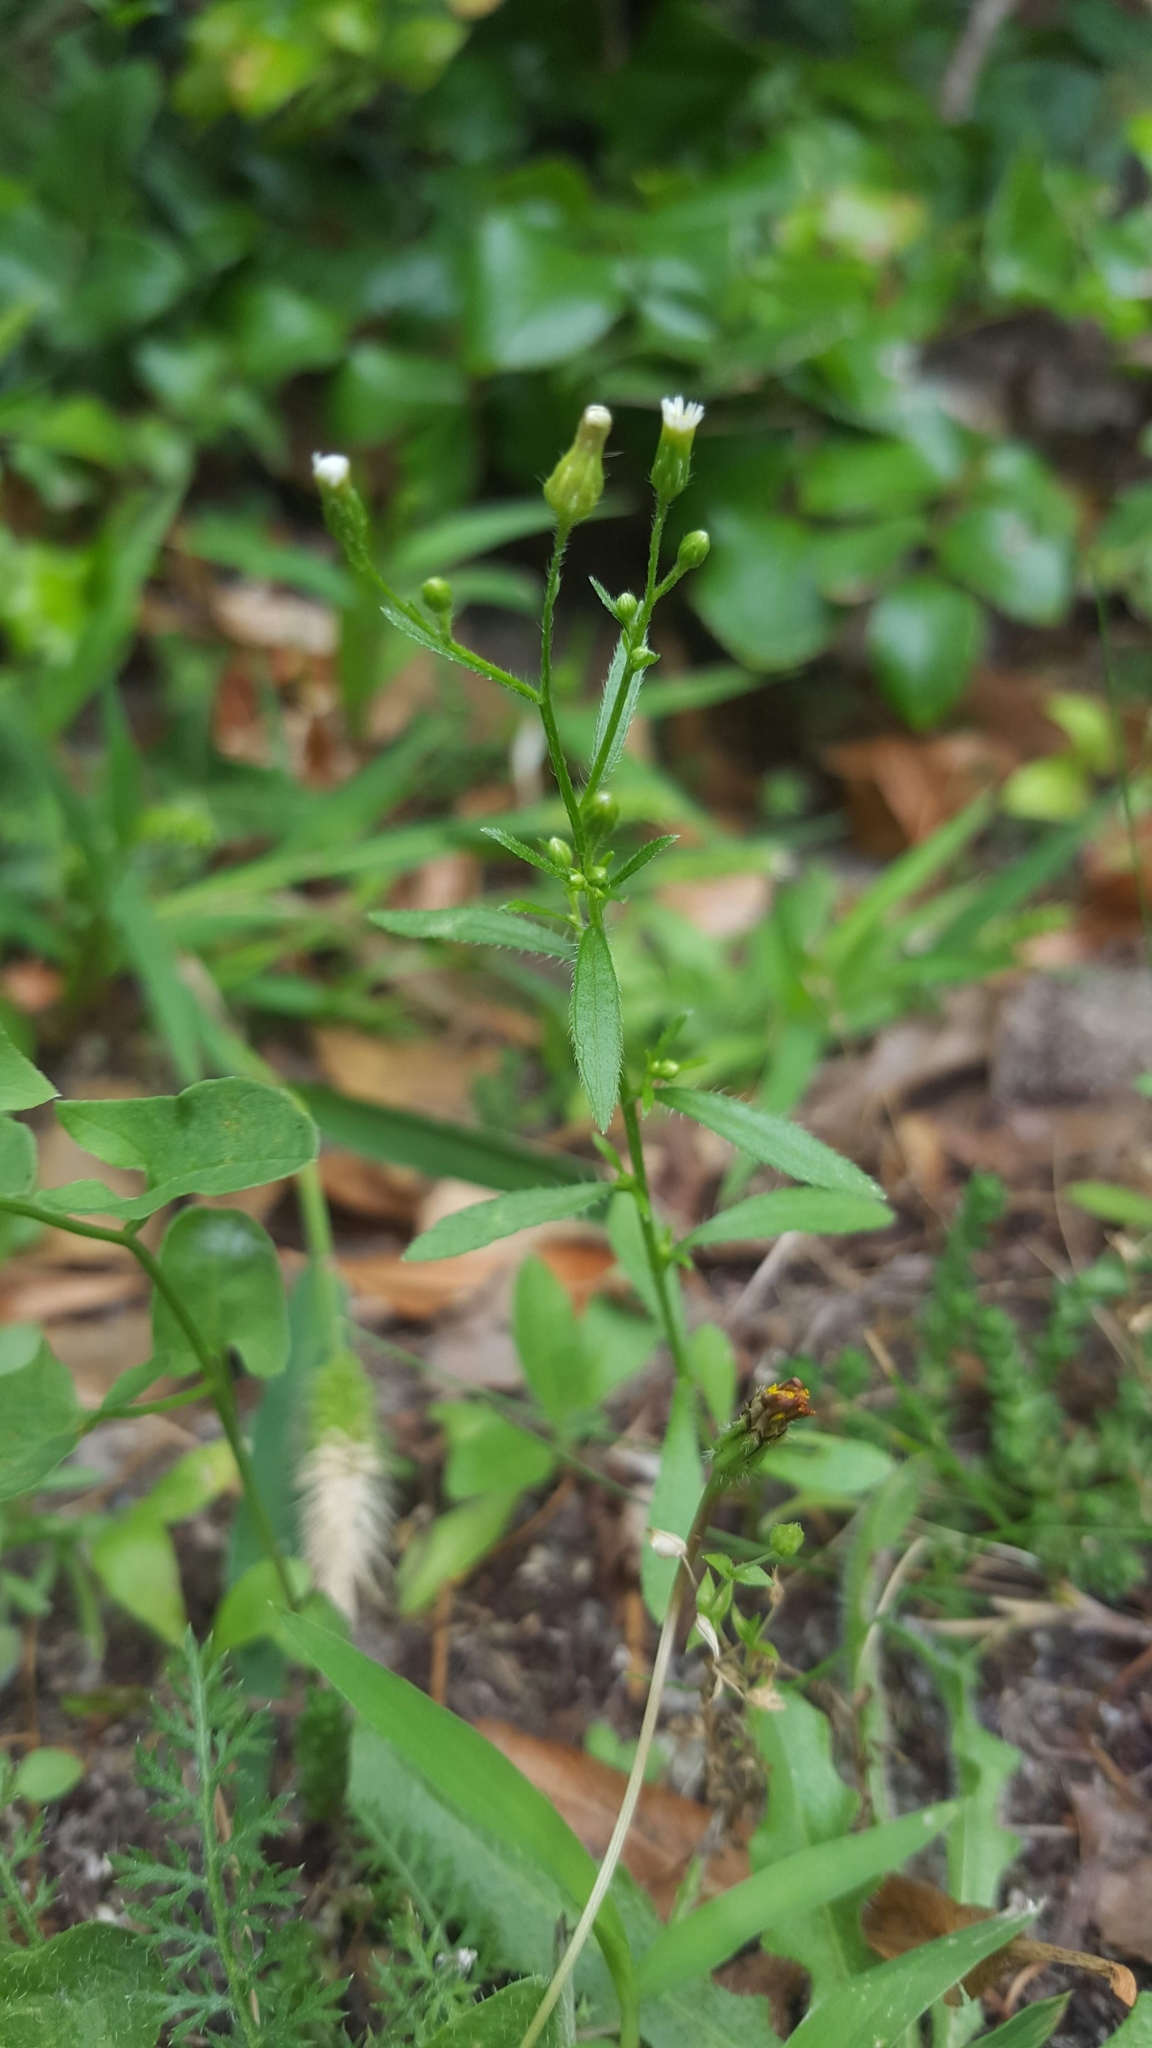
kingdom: Plantae
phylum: Tracheophyta
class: Magnoliopsida
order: Asterales
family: Asteraceae
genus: Erigeron
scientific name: Erigeron canadensis
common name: Canadian fleabane
